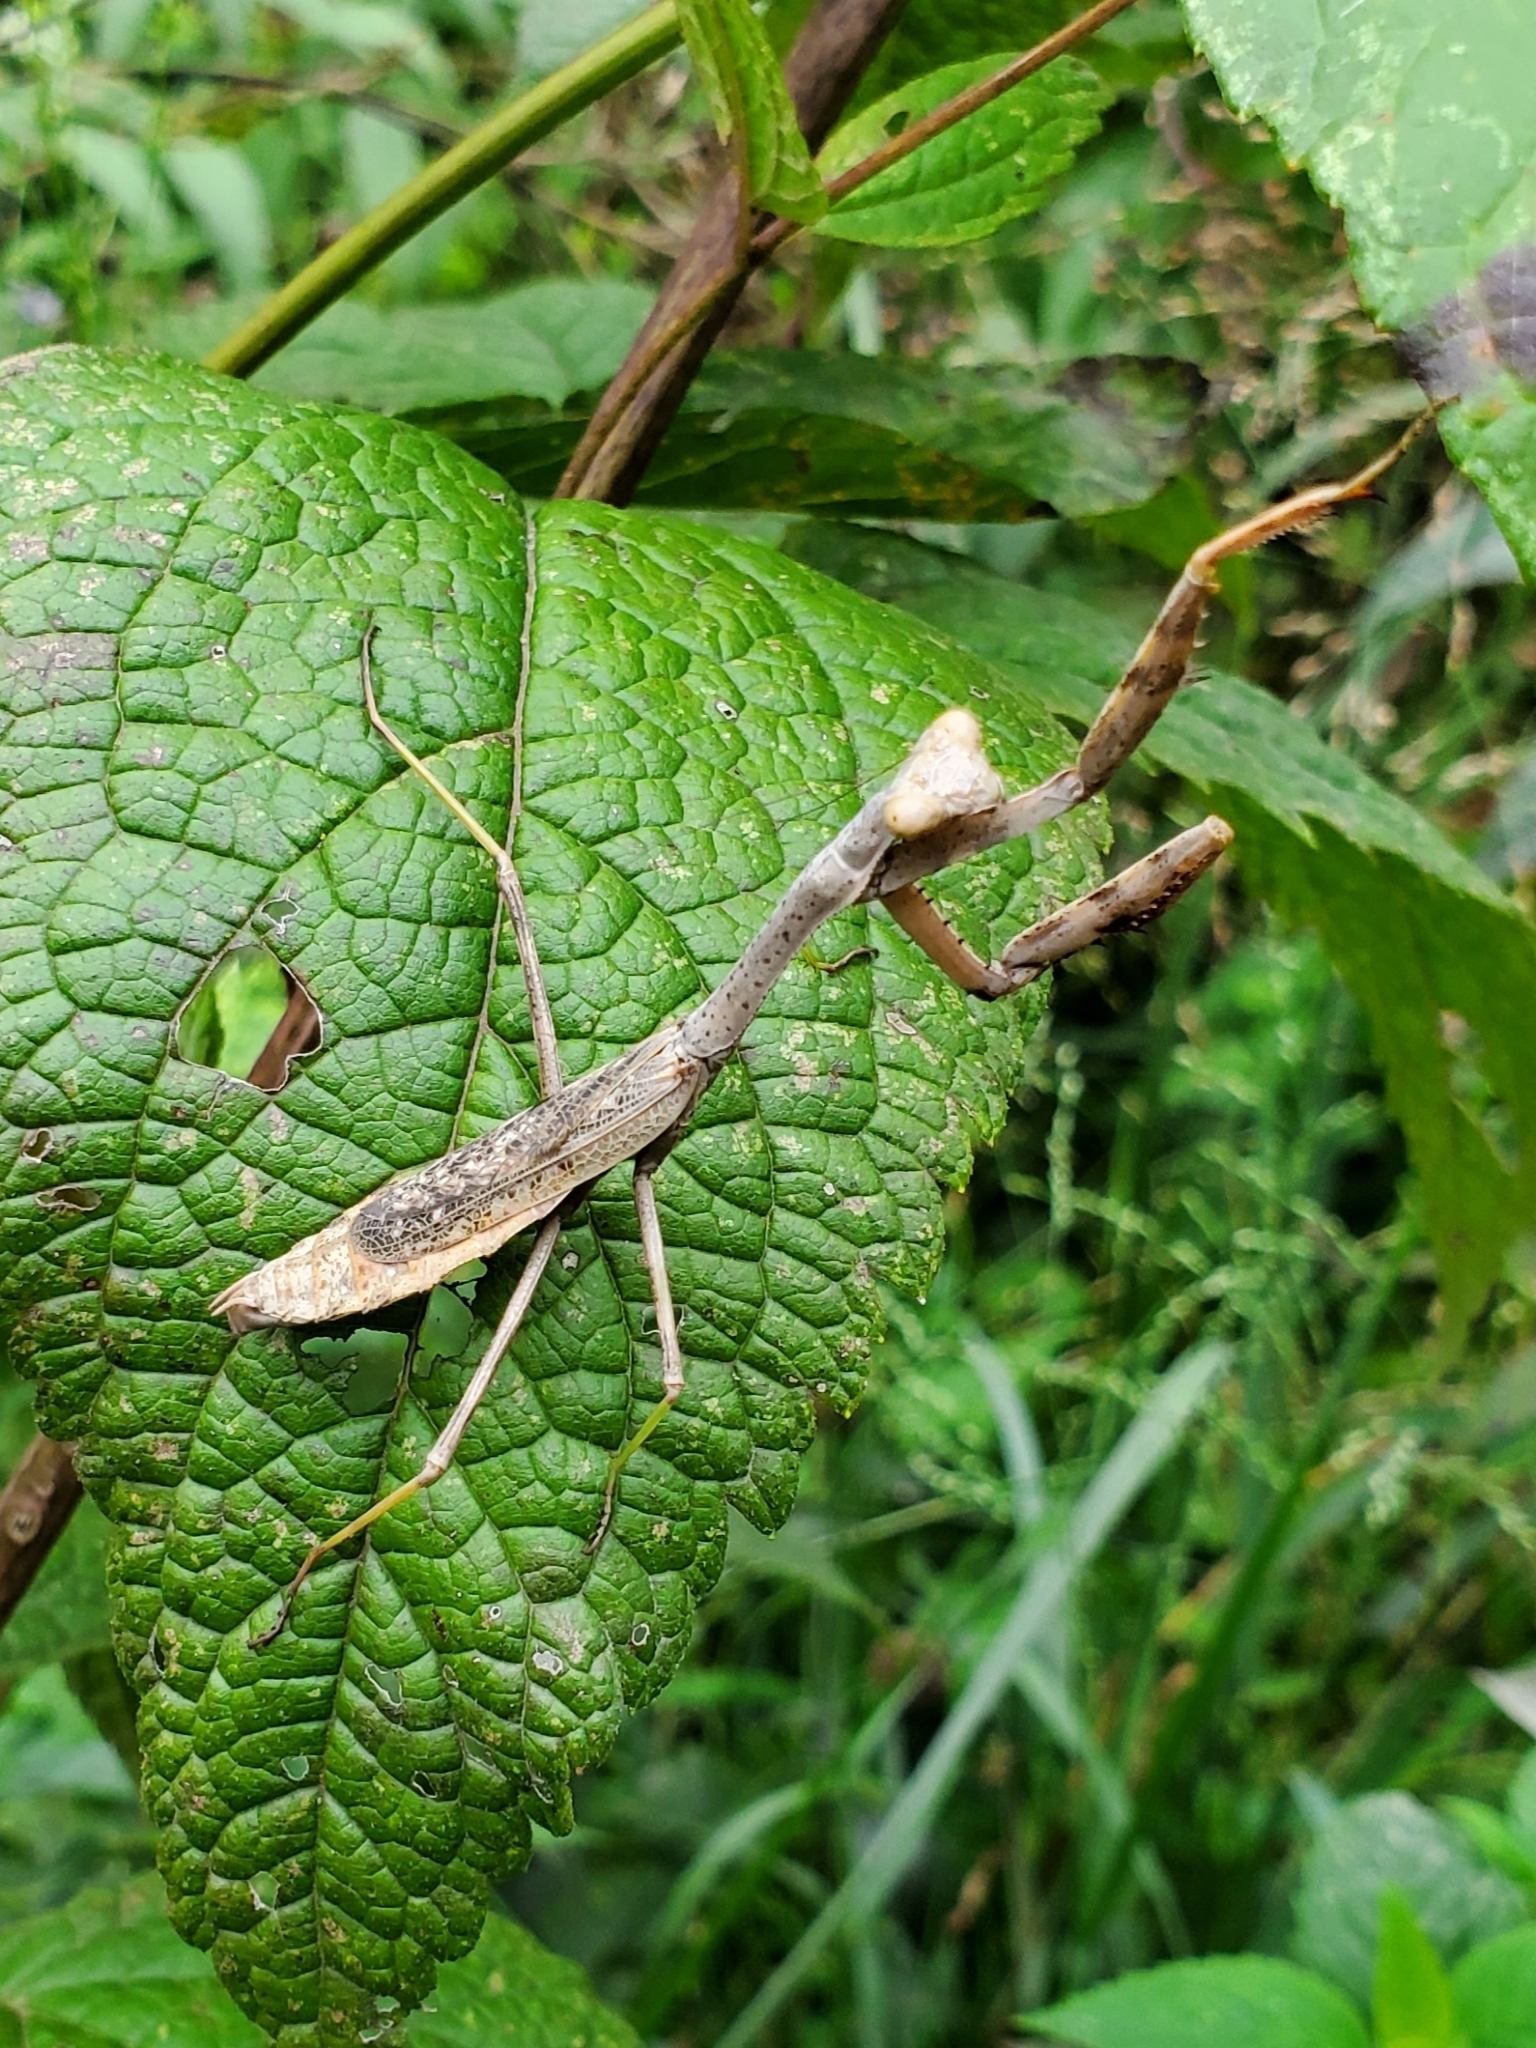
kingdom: Animalia
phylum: Arthropoda
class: Insecta
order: Mantodea
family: Mantidae
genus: Stagmomantis
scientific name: Stagmomantis carolina
